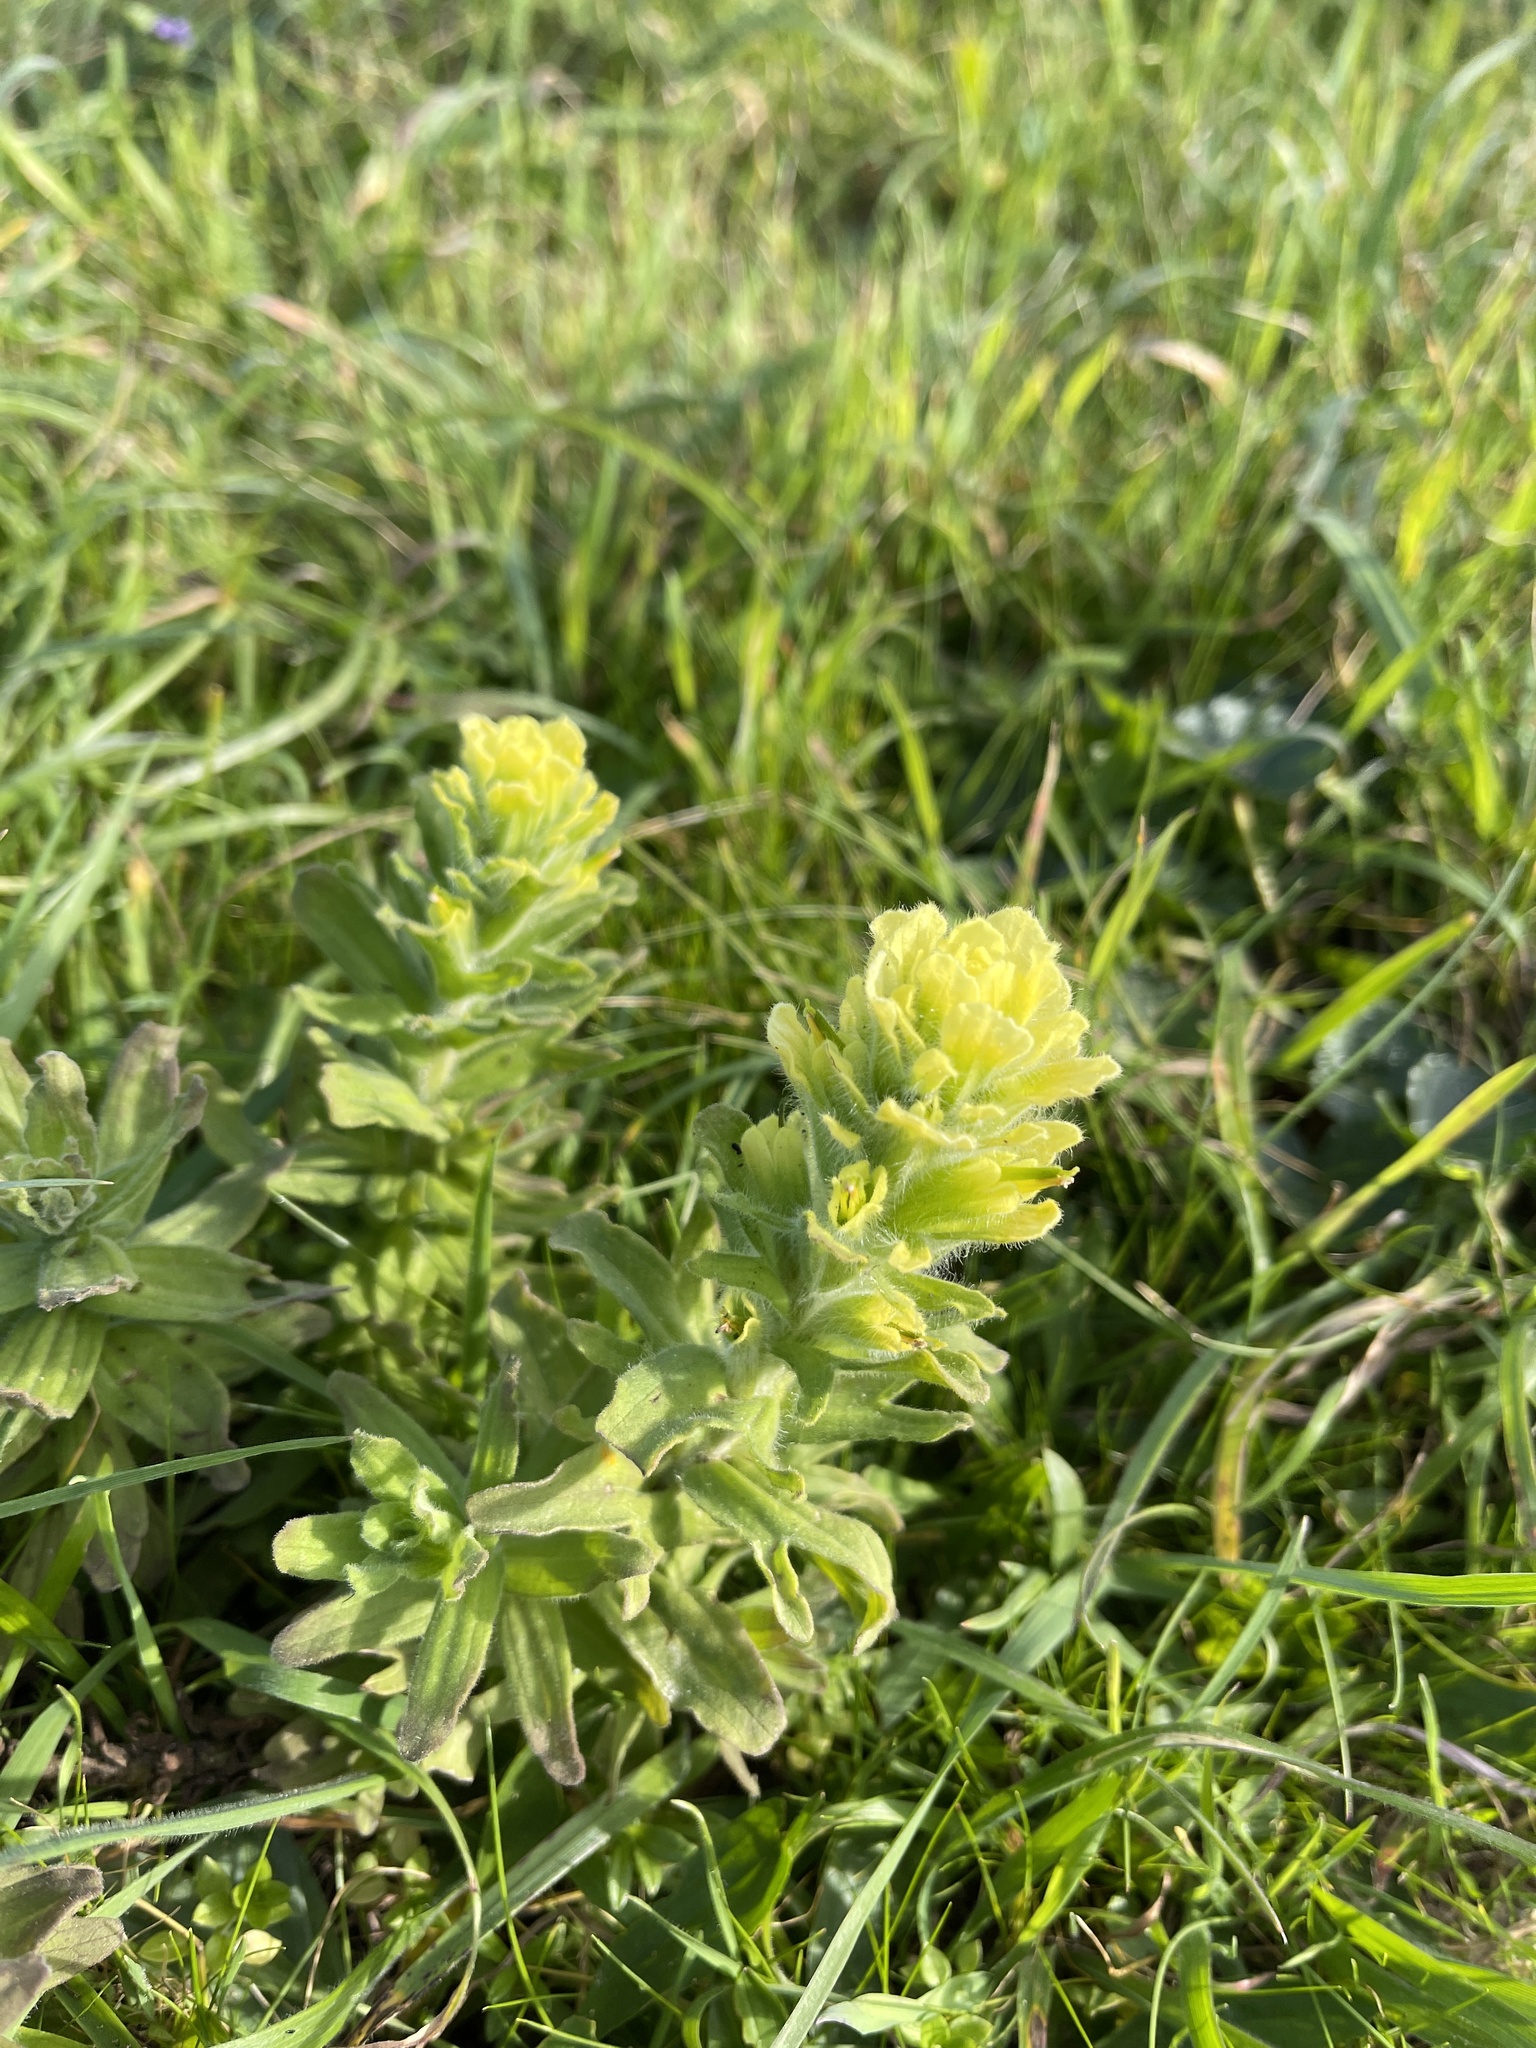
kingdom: Plantae
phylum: Tracheophyta
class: Magnoliopsida
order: Lamiales
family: Orobanchaceae
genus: Castilleja
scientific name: Castilleja wightii
